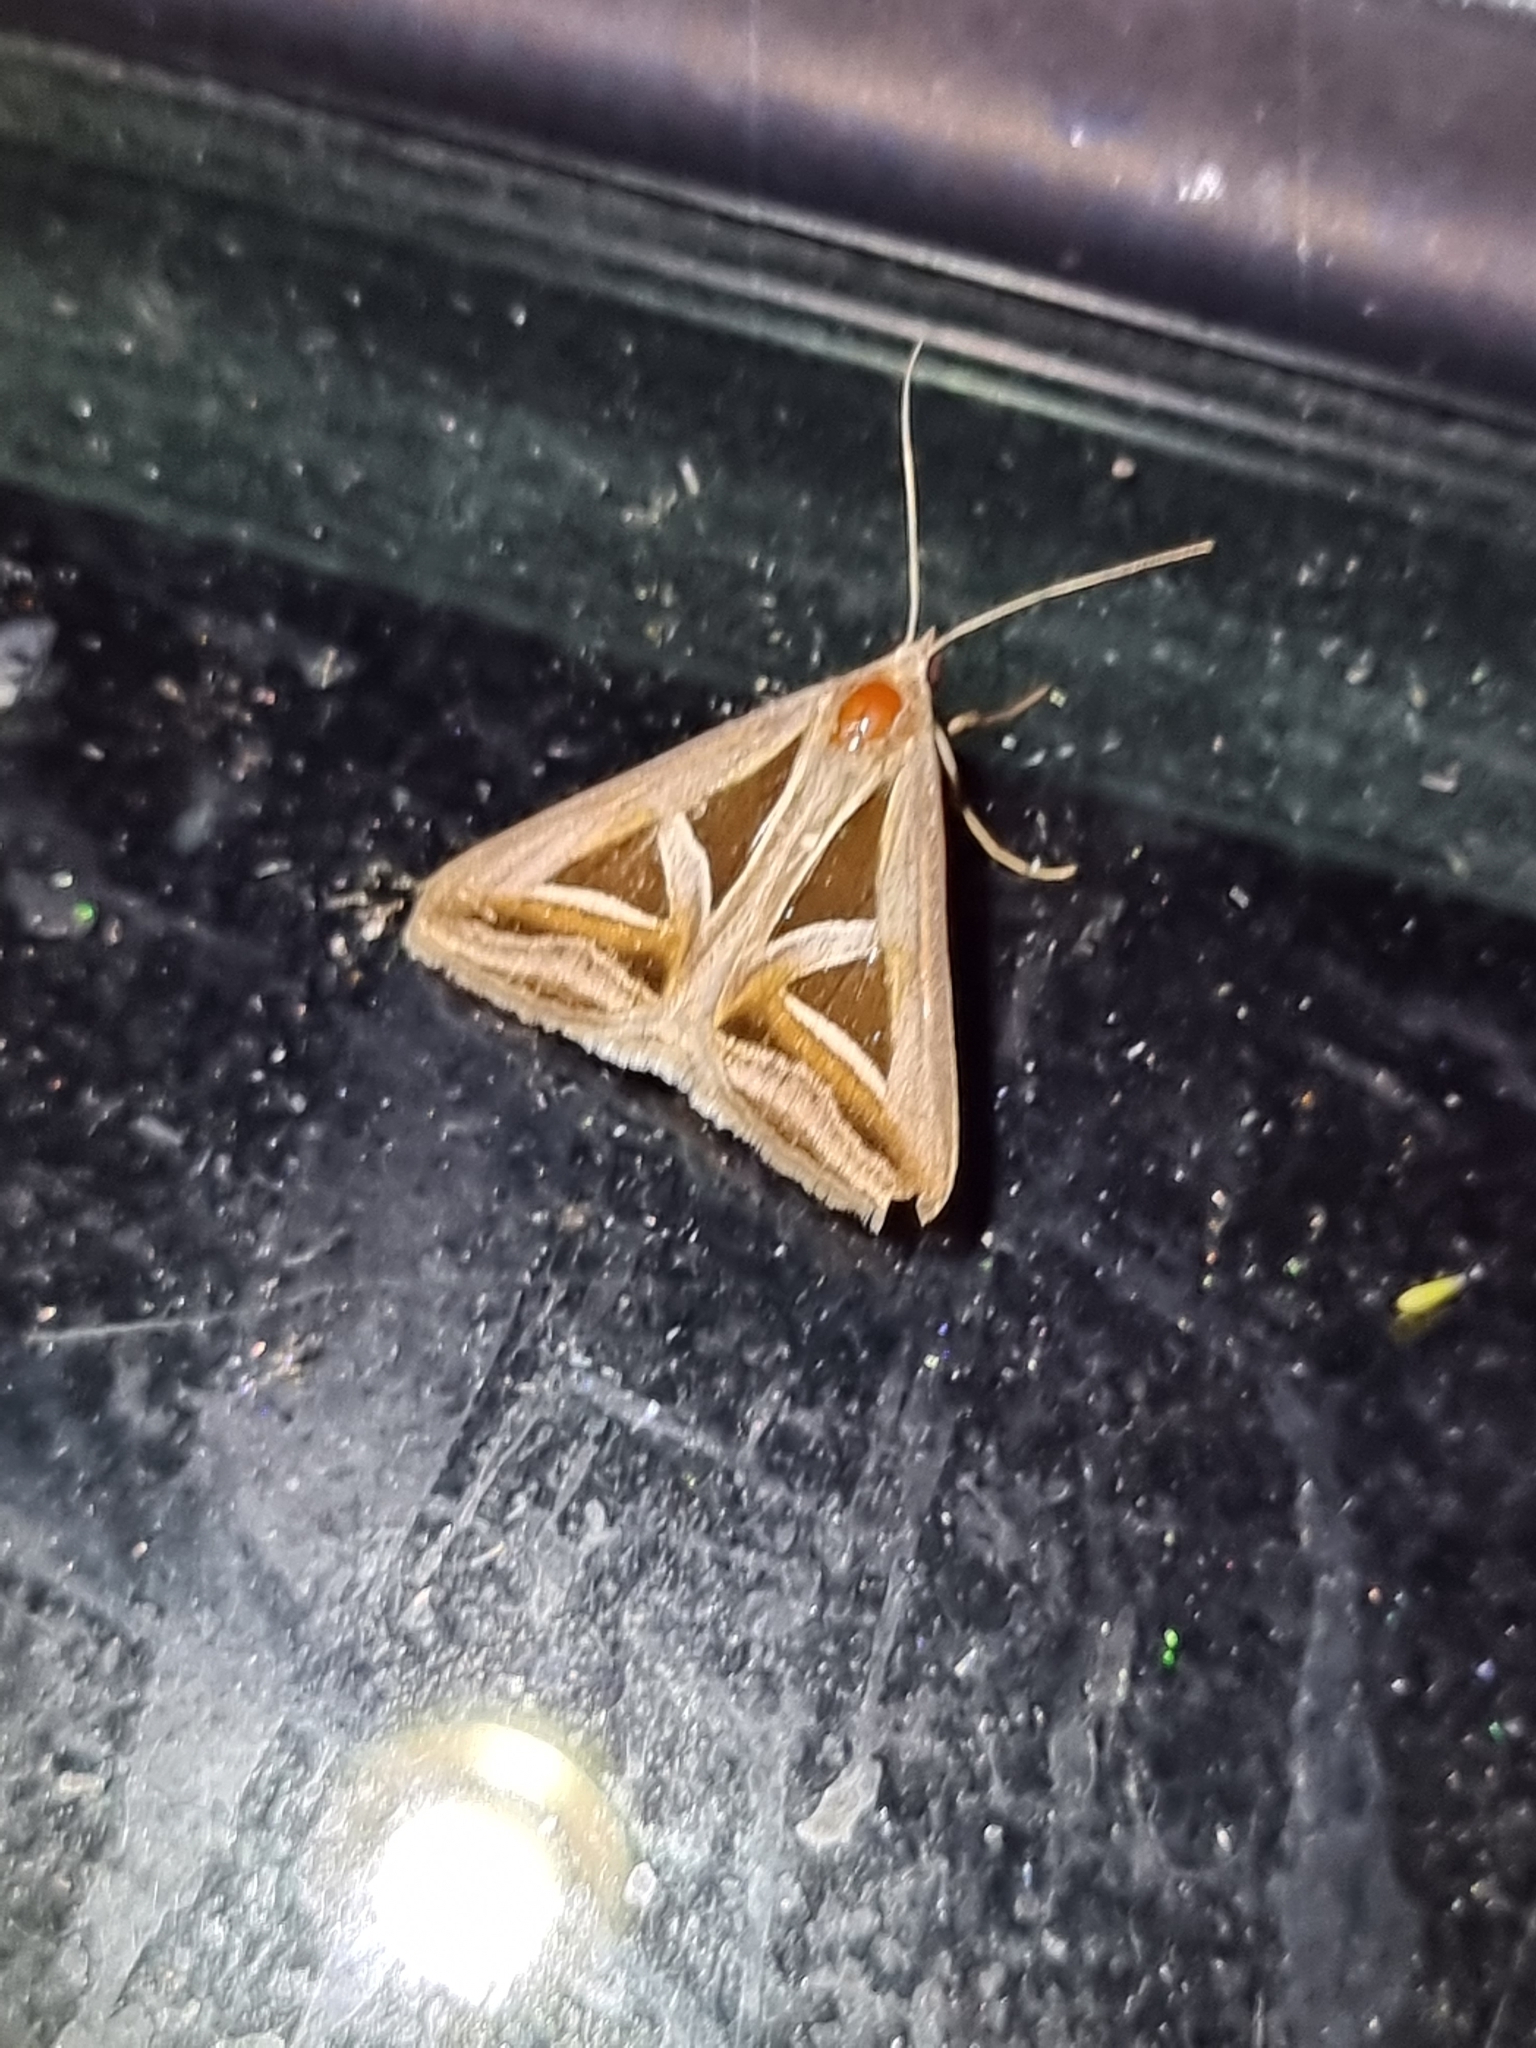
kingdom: Animalia
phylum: Arthropoda
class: Insecta
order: Lepidoptera
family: Erebidae
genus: Trigonodes
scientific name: Trigonodes hyppasia
